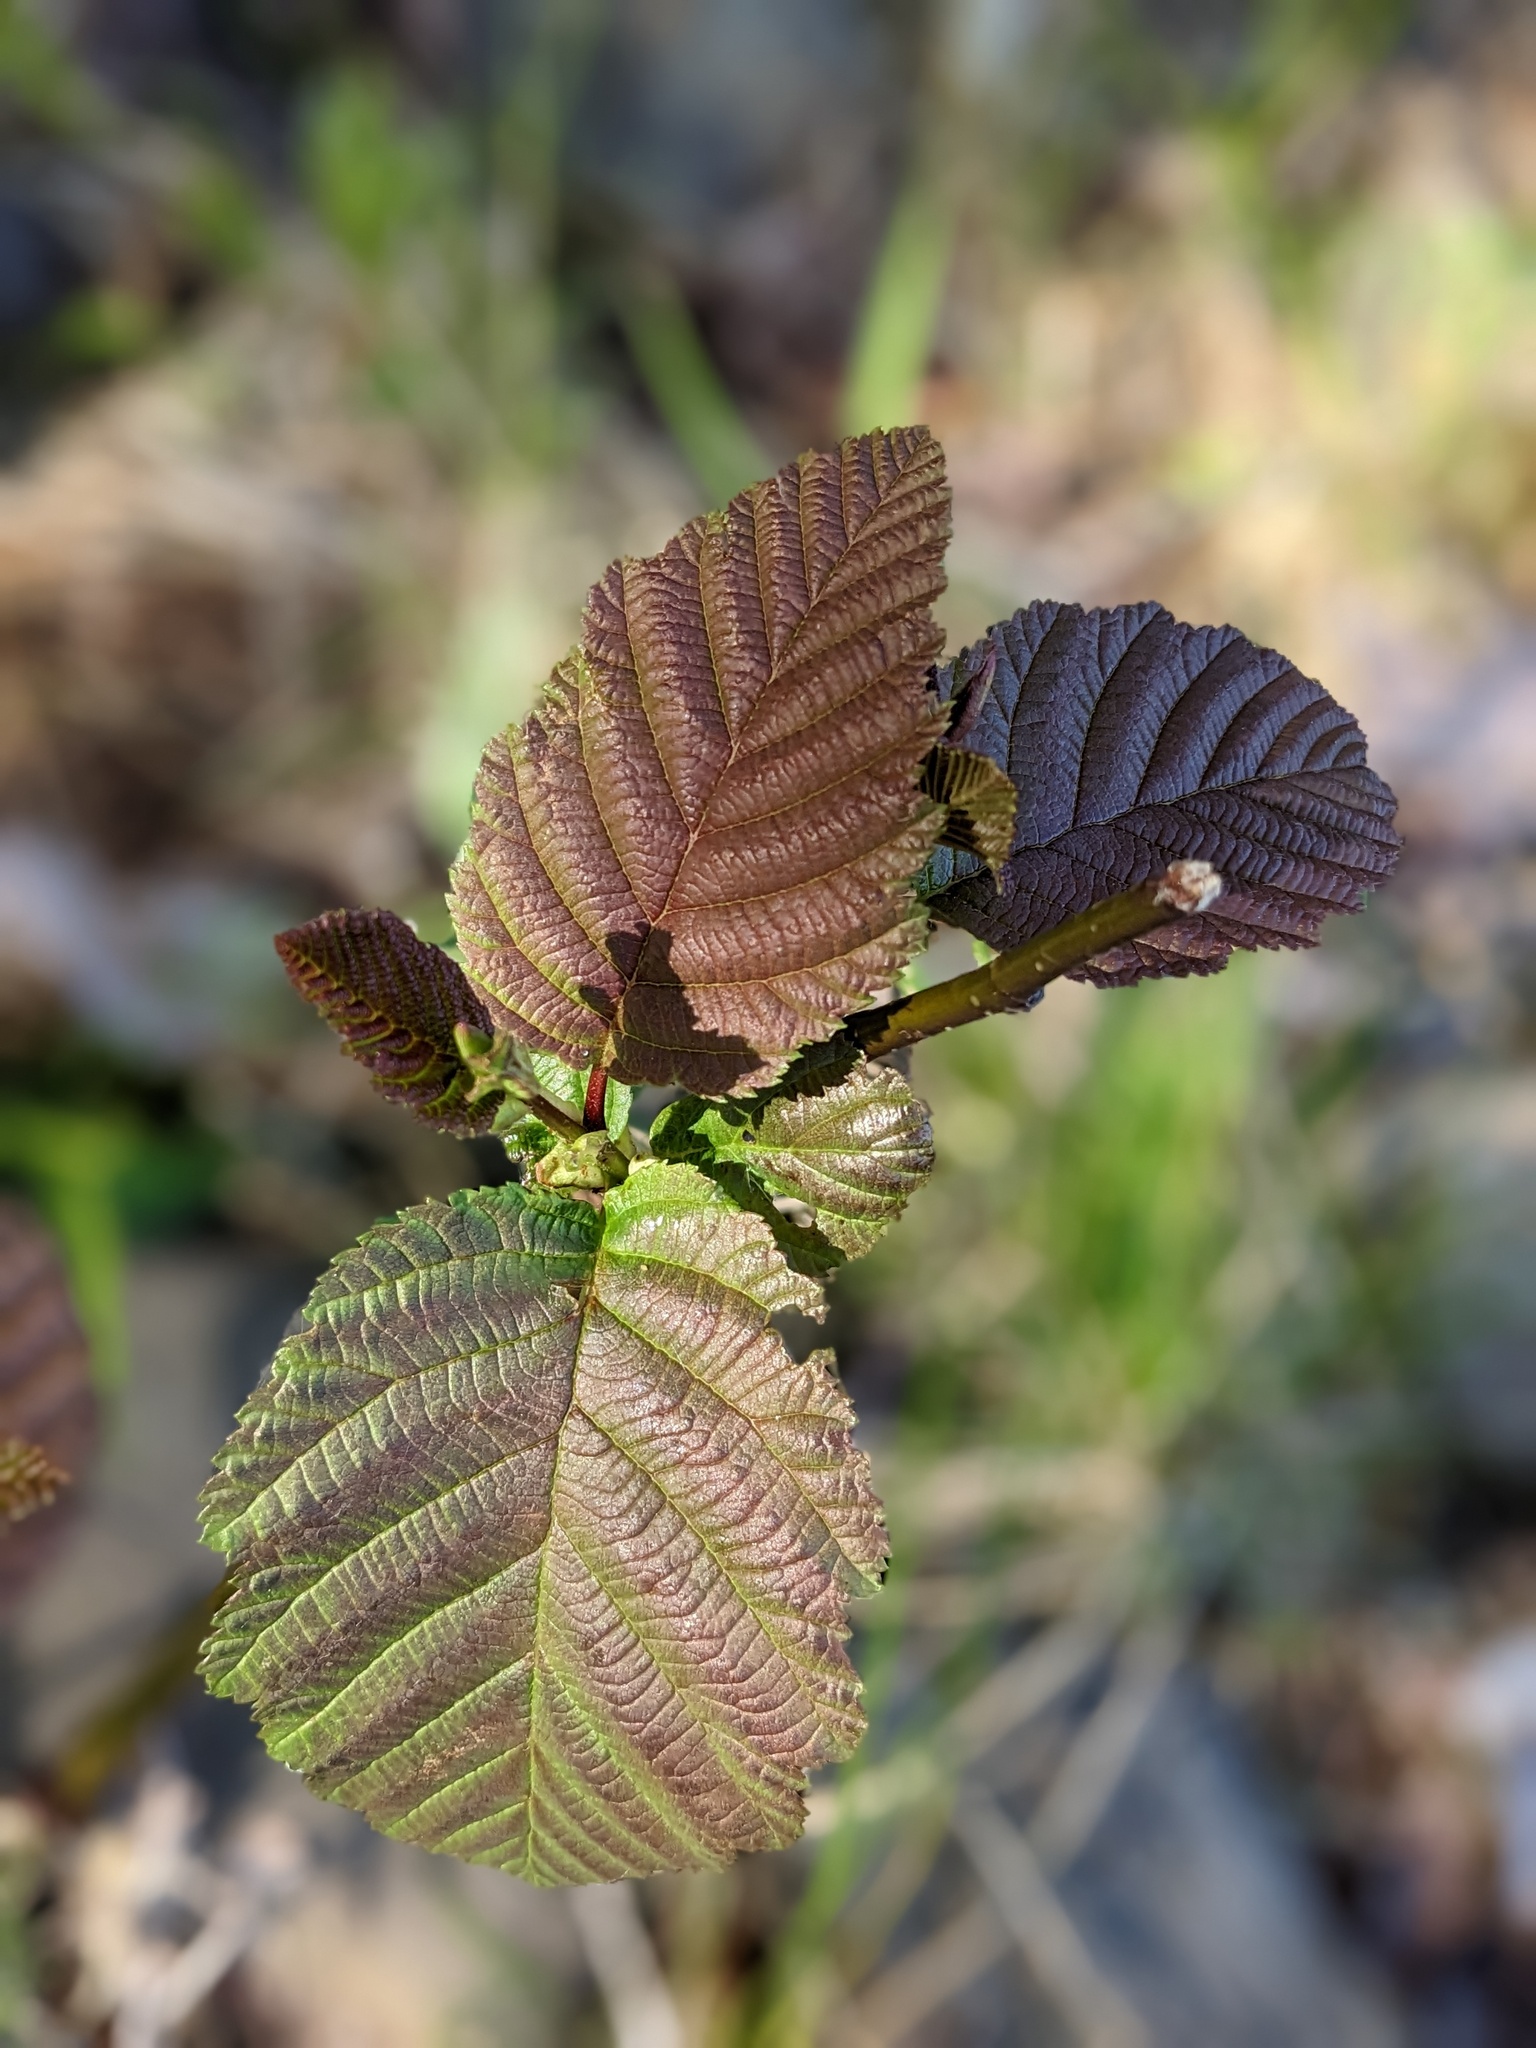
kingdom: Plantae
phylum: Tracheophyta
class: Magnoliopsida
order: Fagales
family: Betulaceae
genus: Alnus
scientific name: Alnus incana
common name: Grey alder
